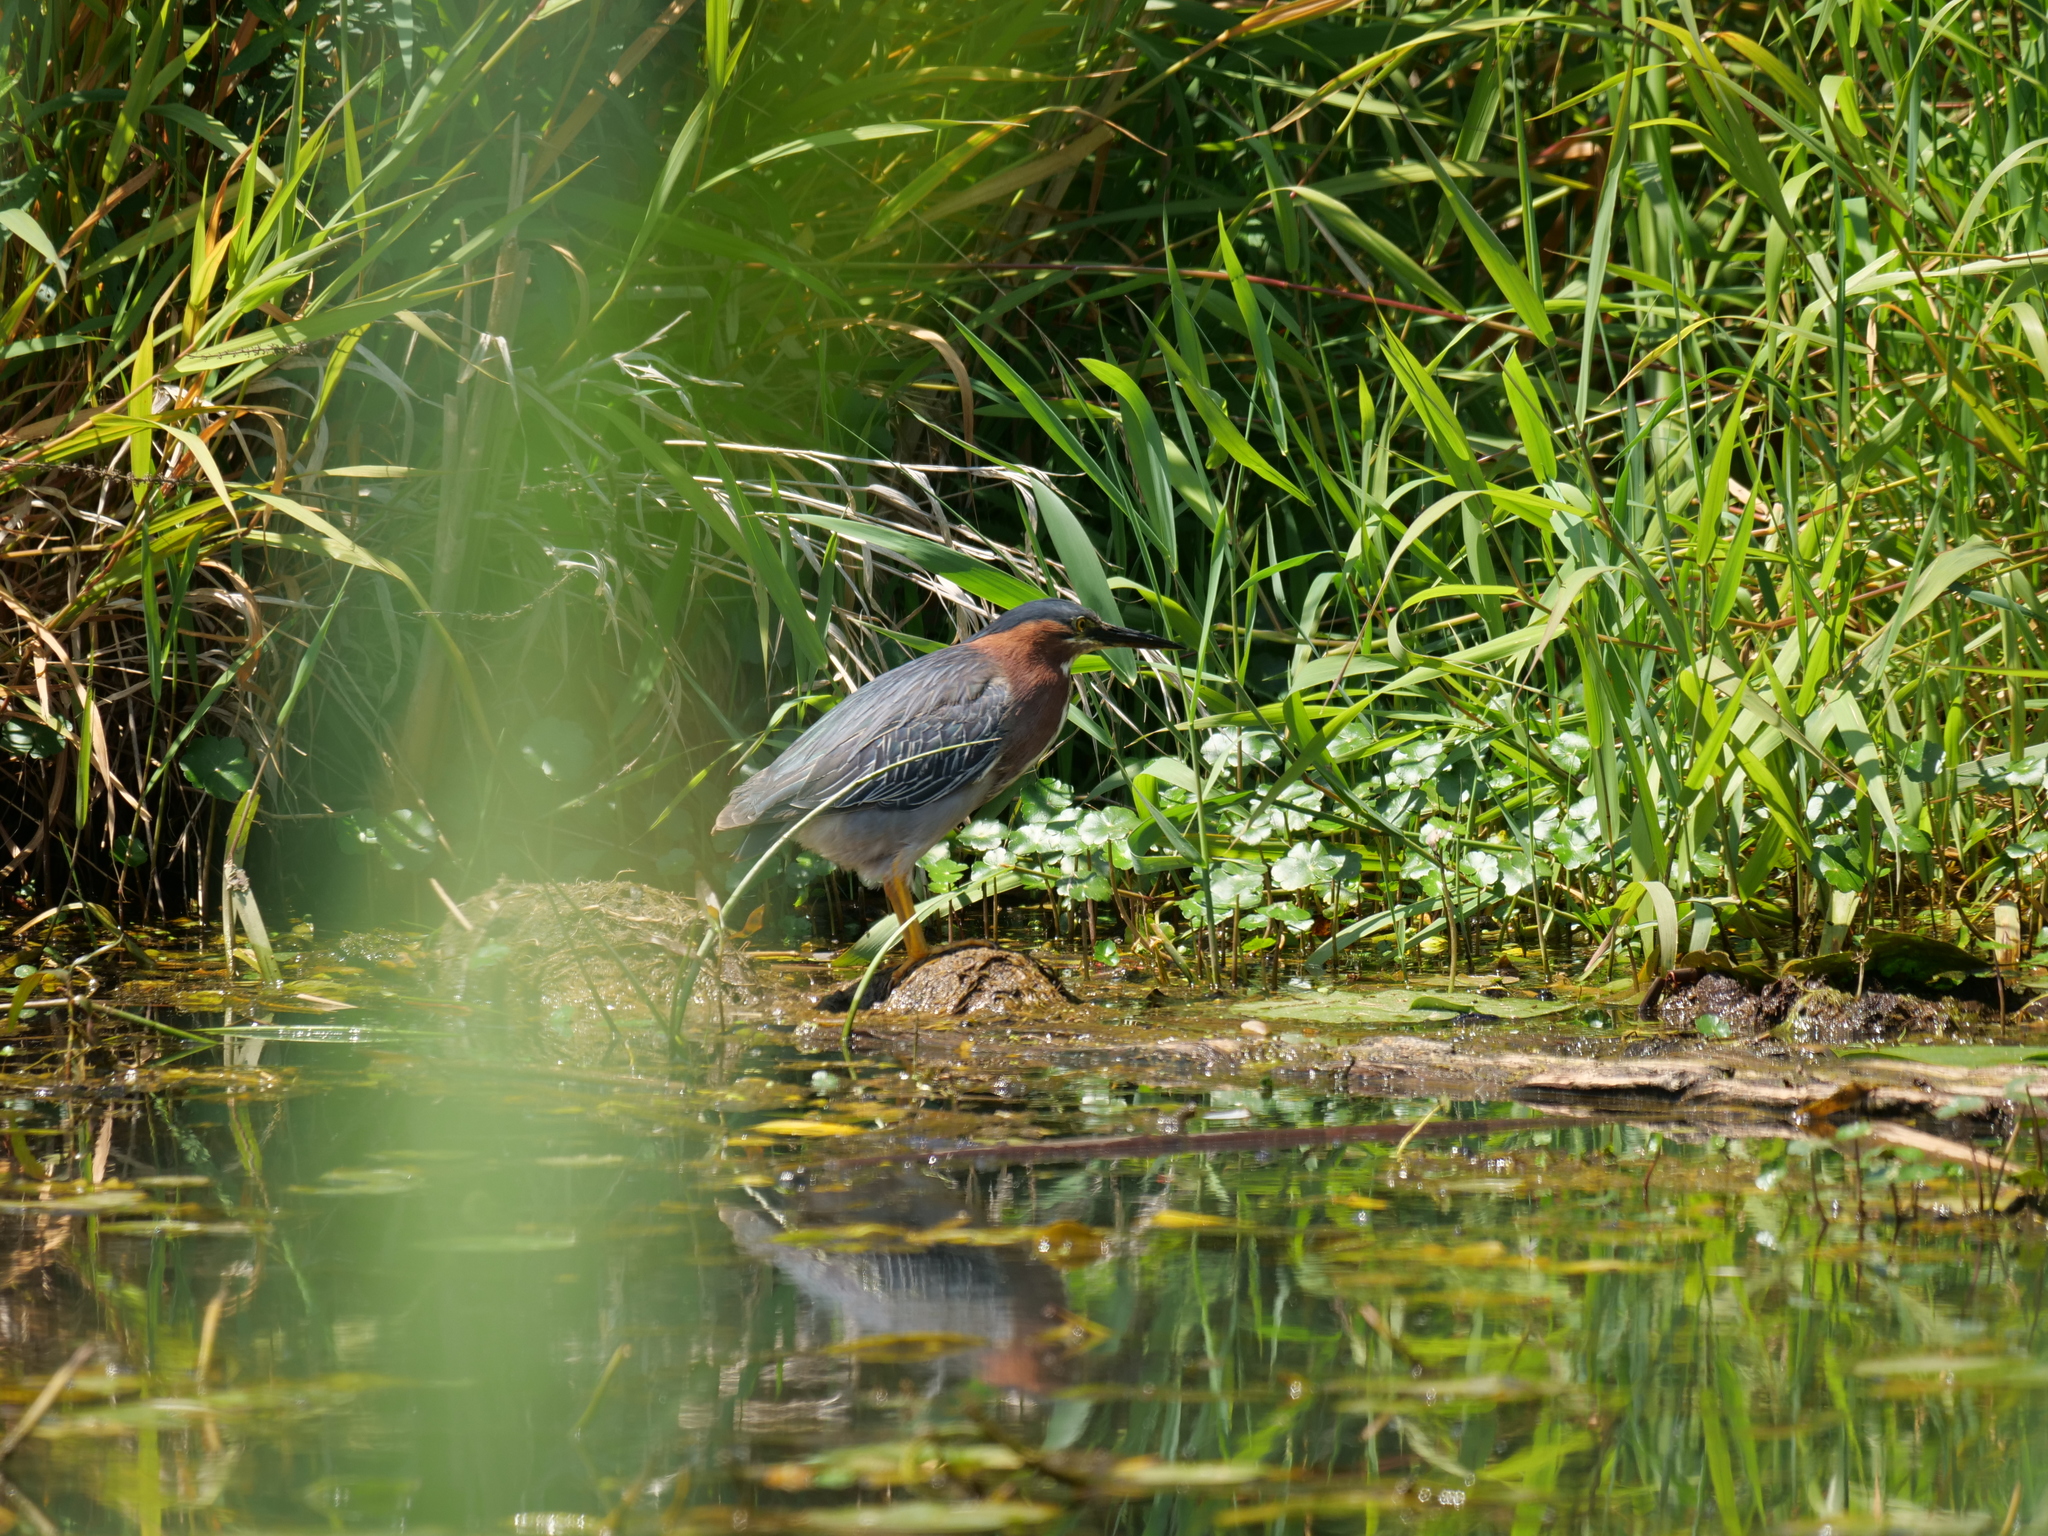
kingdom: Animalia
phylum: Chordata
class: Aves
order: Pelecaniformes
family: Ardeidae
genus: Butorides
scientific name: Butorides virescens
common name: Green heron
